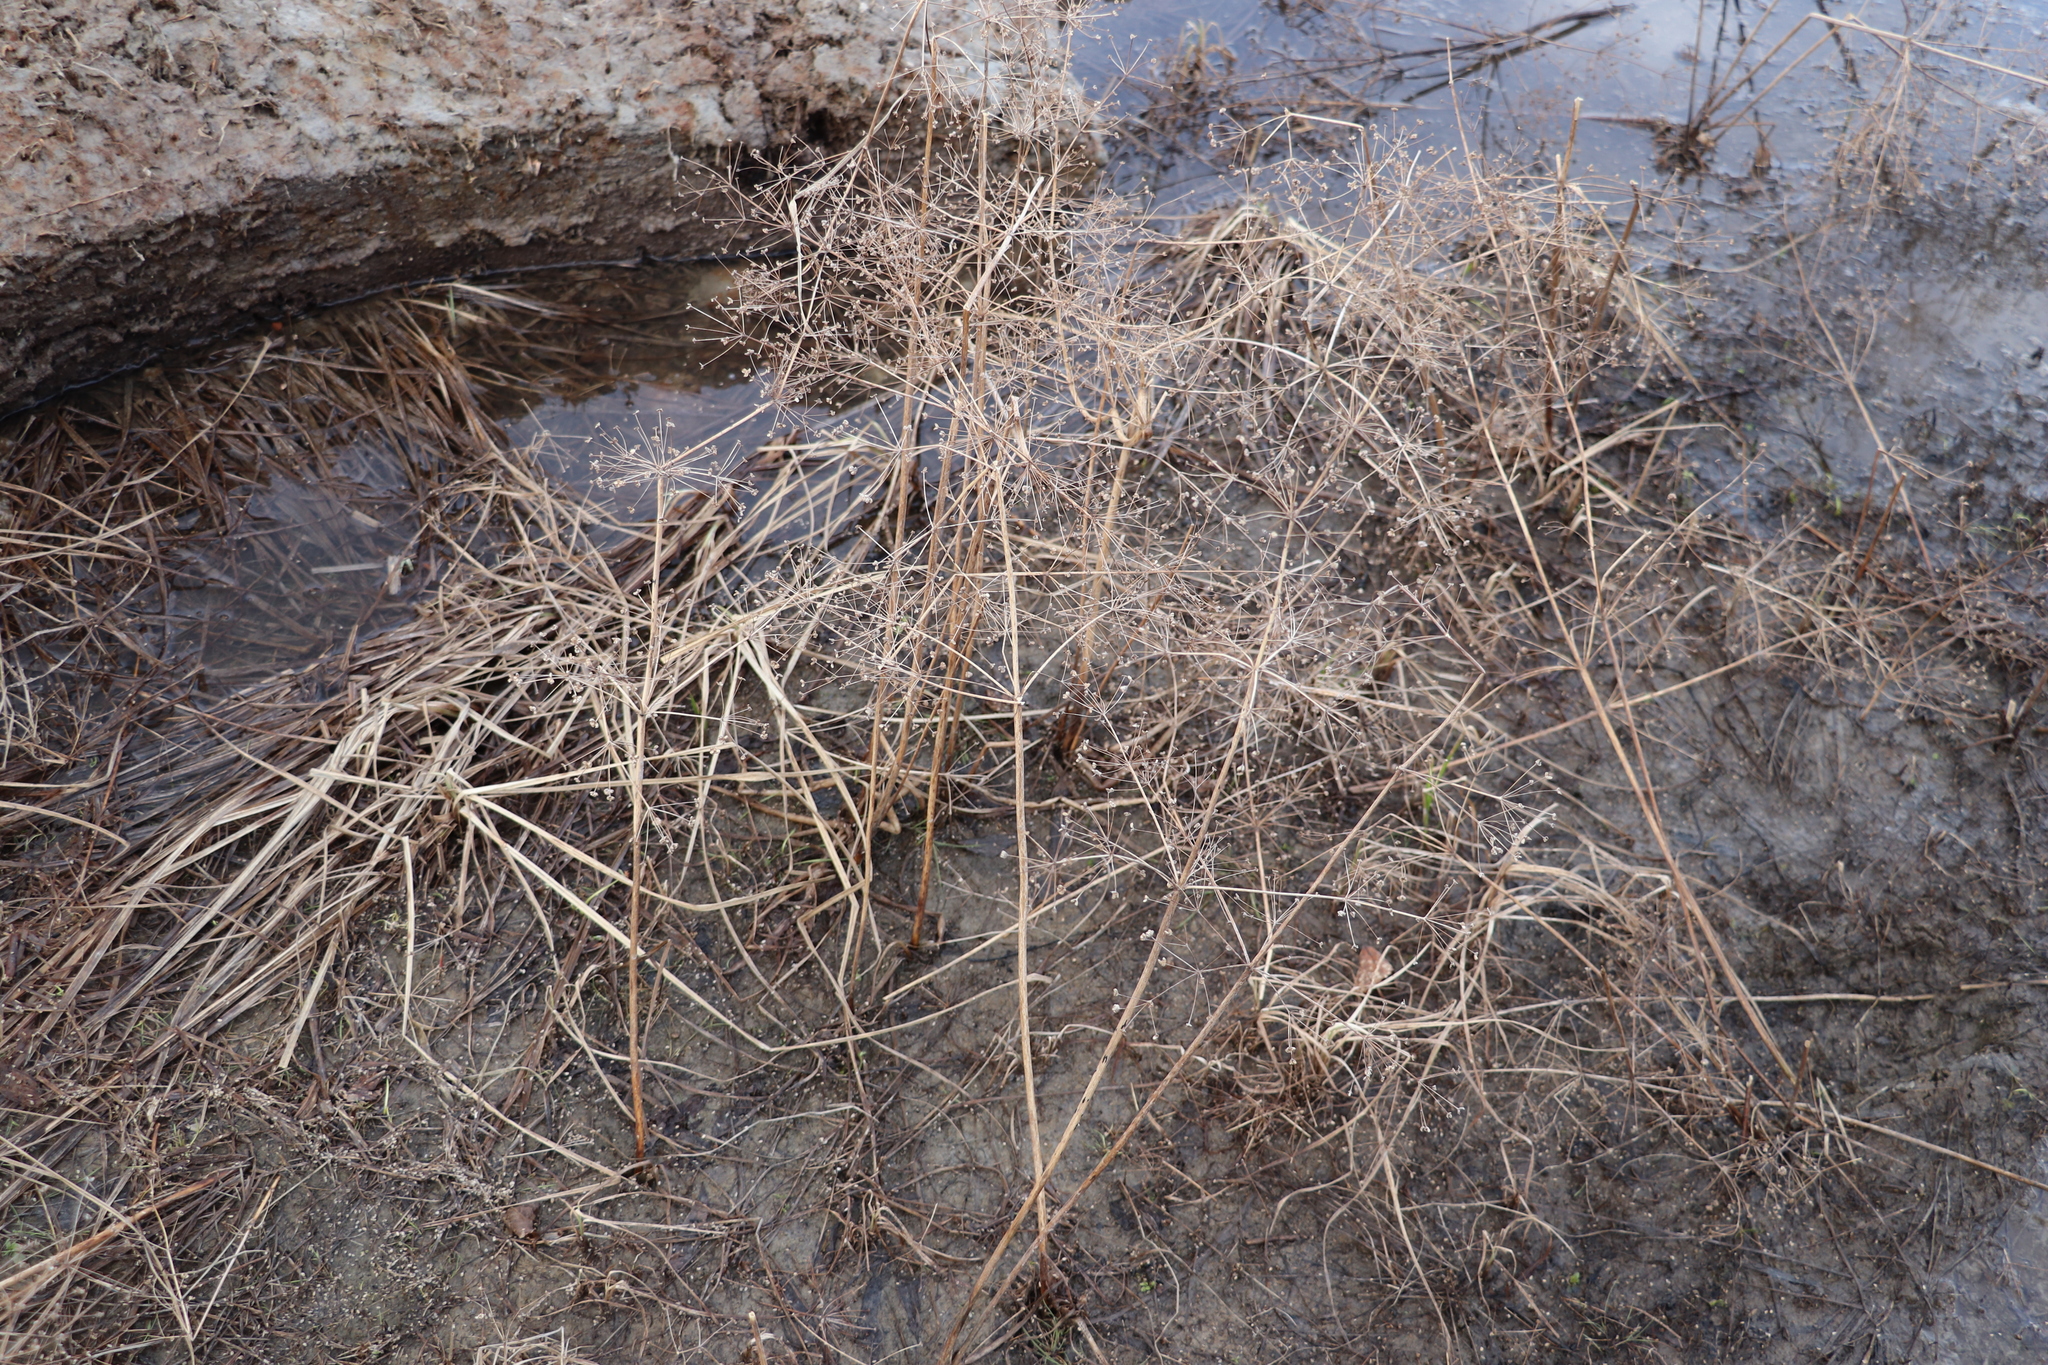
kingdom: Plantae
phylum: Tracheophyta
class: Liliopsida
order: Alismatales
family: Alismataceae
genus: Alisma
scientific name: Alisma plantago-aquatica
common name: Water-plantain
